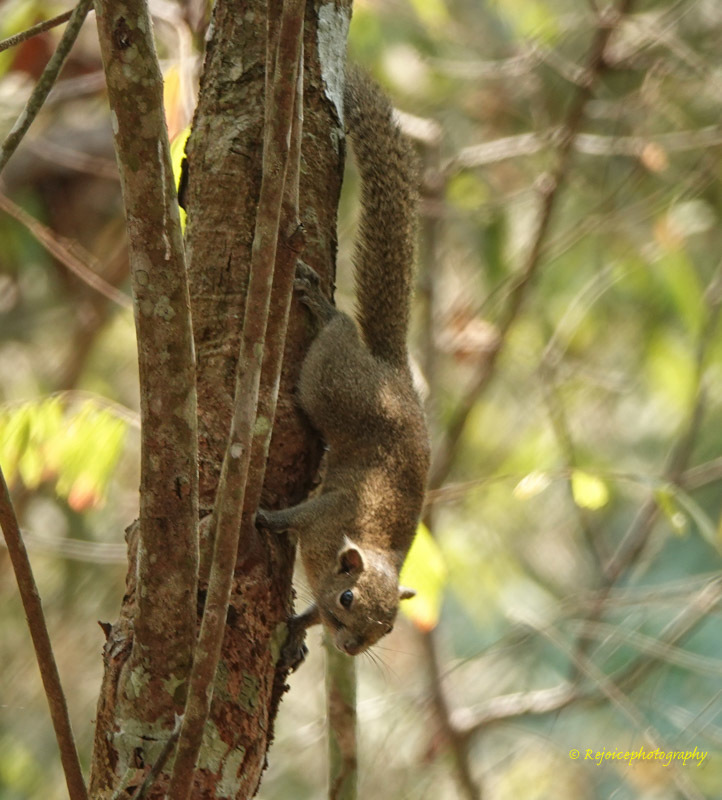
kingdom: Animalia
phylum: Chordata
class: Mammalia
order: Rodentia
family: Sciuridae
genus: Callosciurus
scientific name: Callosciurus pygerythrus
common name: Irrawaddy squirrel
